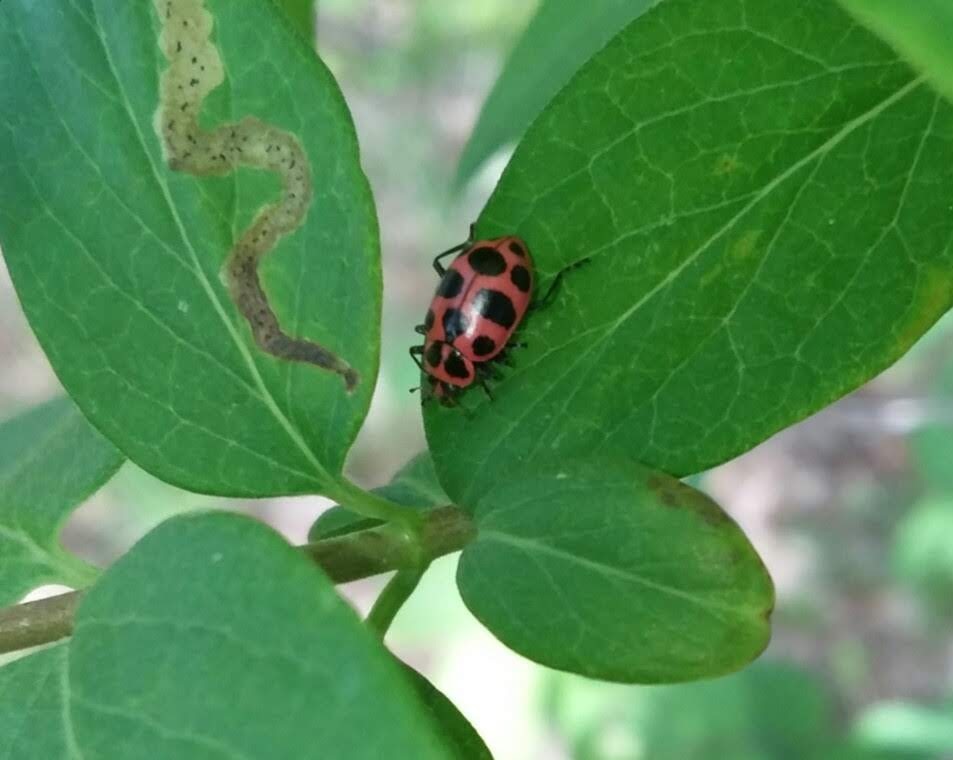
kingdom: Animalia
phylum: Arthropoda
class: Insecta
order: Coleoptera
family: Coccinellidae
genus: Coleomegilla
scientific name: Coleomegilla maculata
